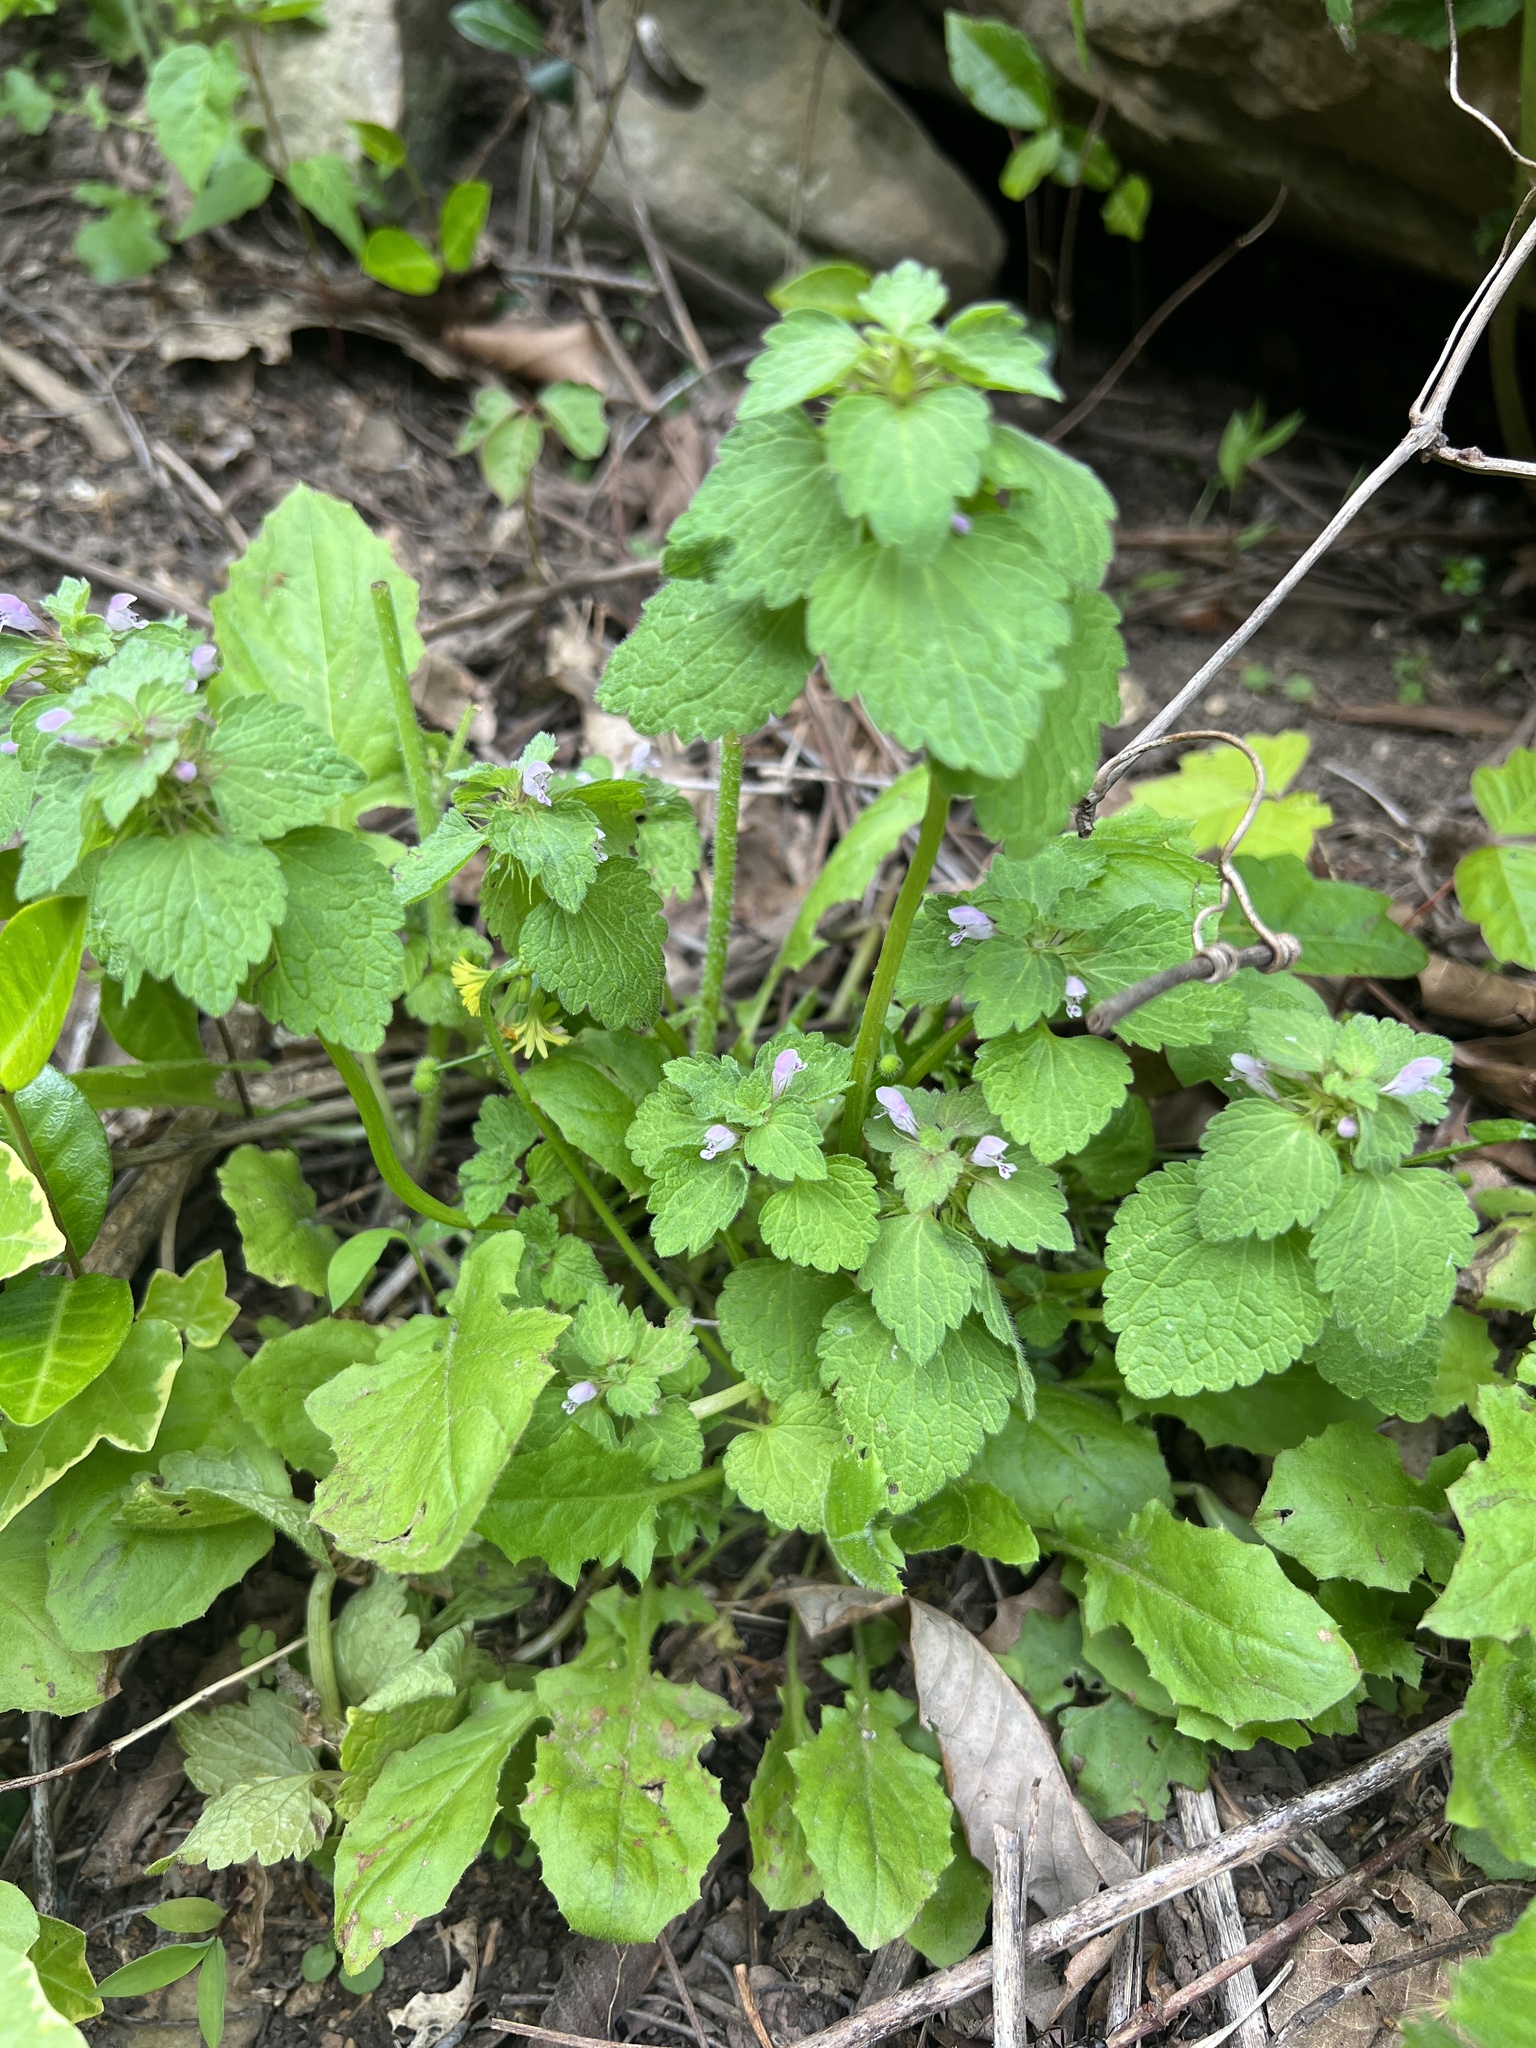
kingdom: Plantae
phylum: Tracheophyta
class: Magnoliopsida
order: Lamiales
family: Lamiaceae
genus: Lamium
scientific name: Lamium purpureum
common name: Red dead-nettle
